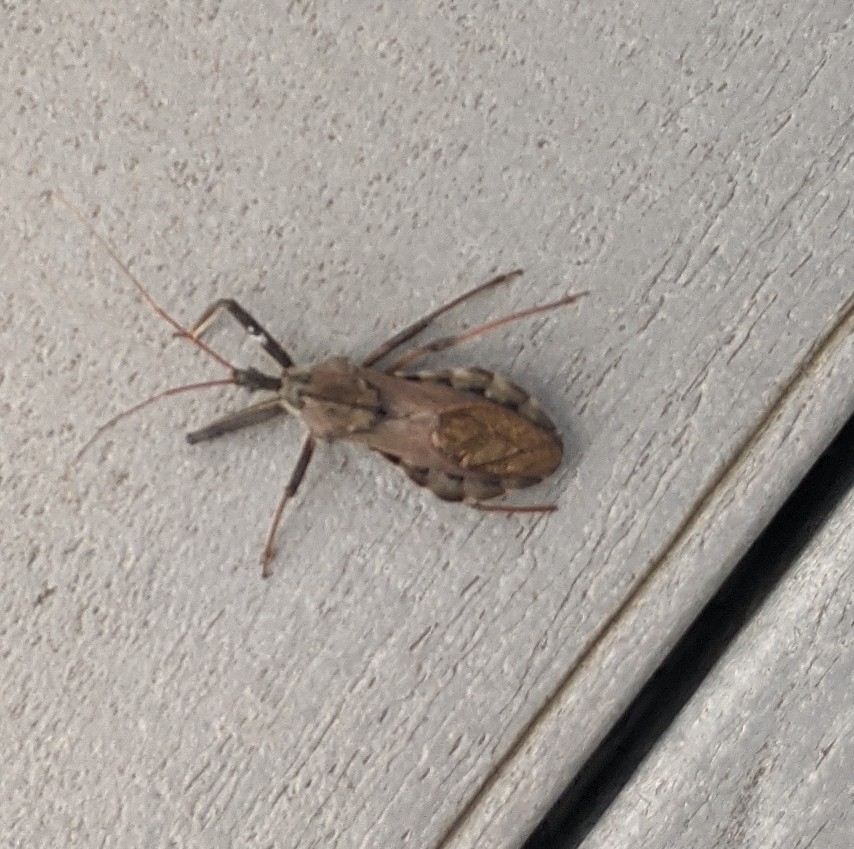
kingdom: Animalia
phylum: Arthropoda
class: Insecta
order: Hemiptera
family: Reduviidae
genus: Arilus
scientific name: Arilus cristatus
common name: North american wheel bug
